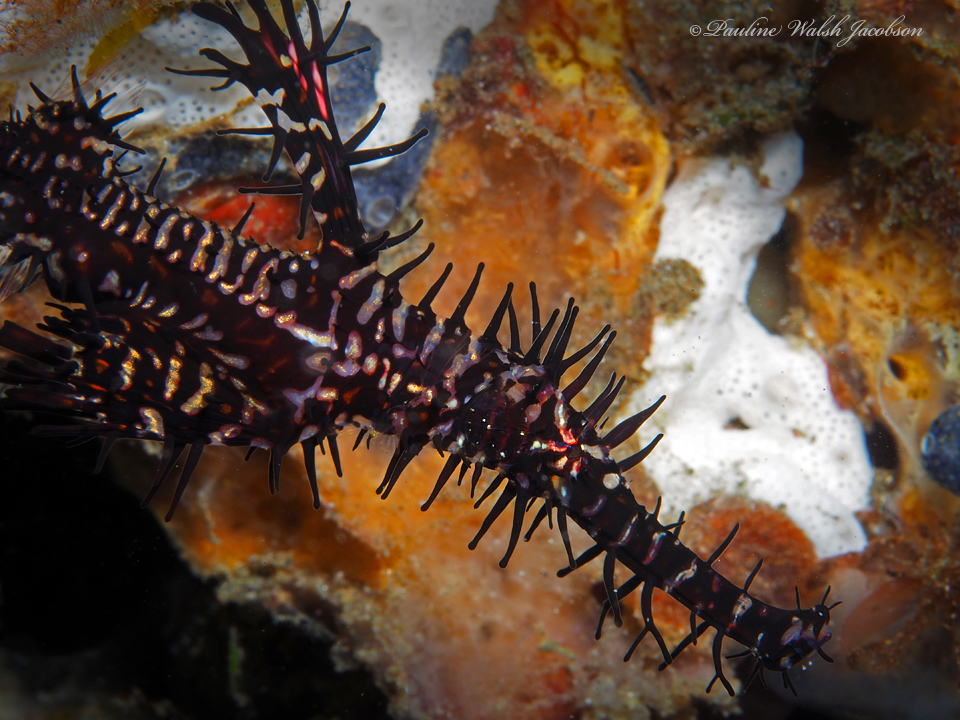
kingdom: Animalia
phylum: Chordata
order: Syngnathiformes
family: Solenostomidae
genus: Solenostomus
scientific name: Solenostomus paradoxus
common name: Ghost pipefish
